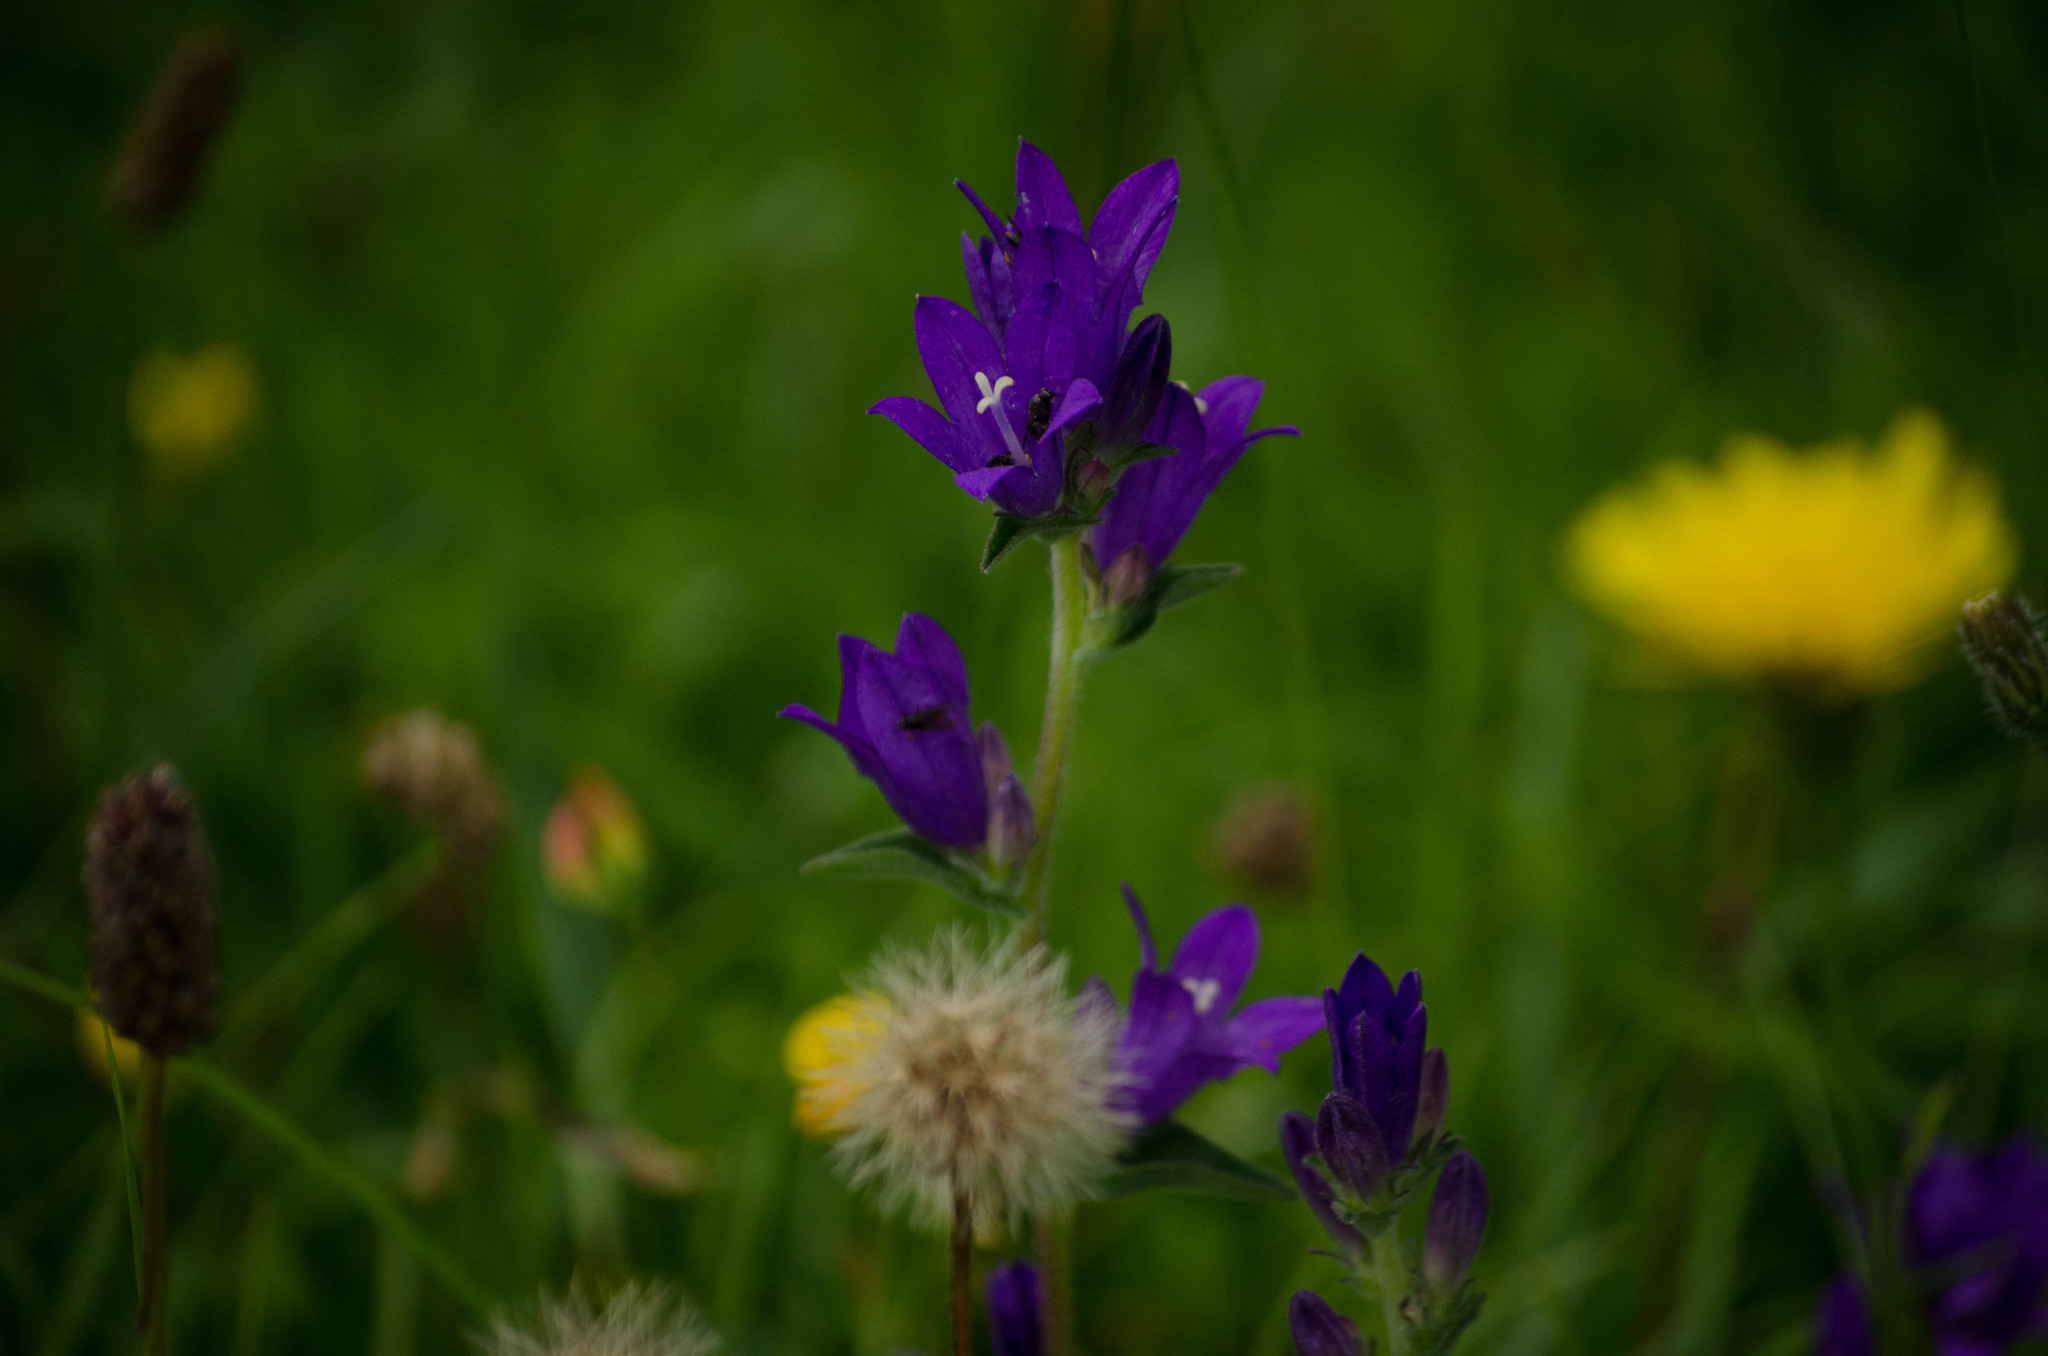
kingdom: Plantae
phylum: Tracheophyta
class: Magnoliopsida
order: Asterales
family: Campanulaceae
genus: Campanula
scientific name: Campanula glomerata
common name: Clustered bellflower
